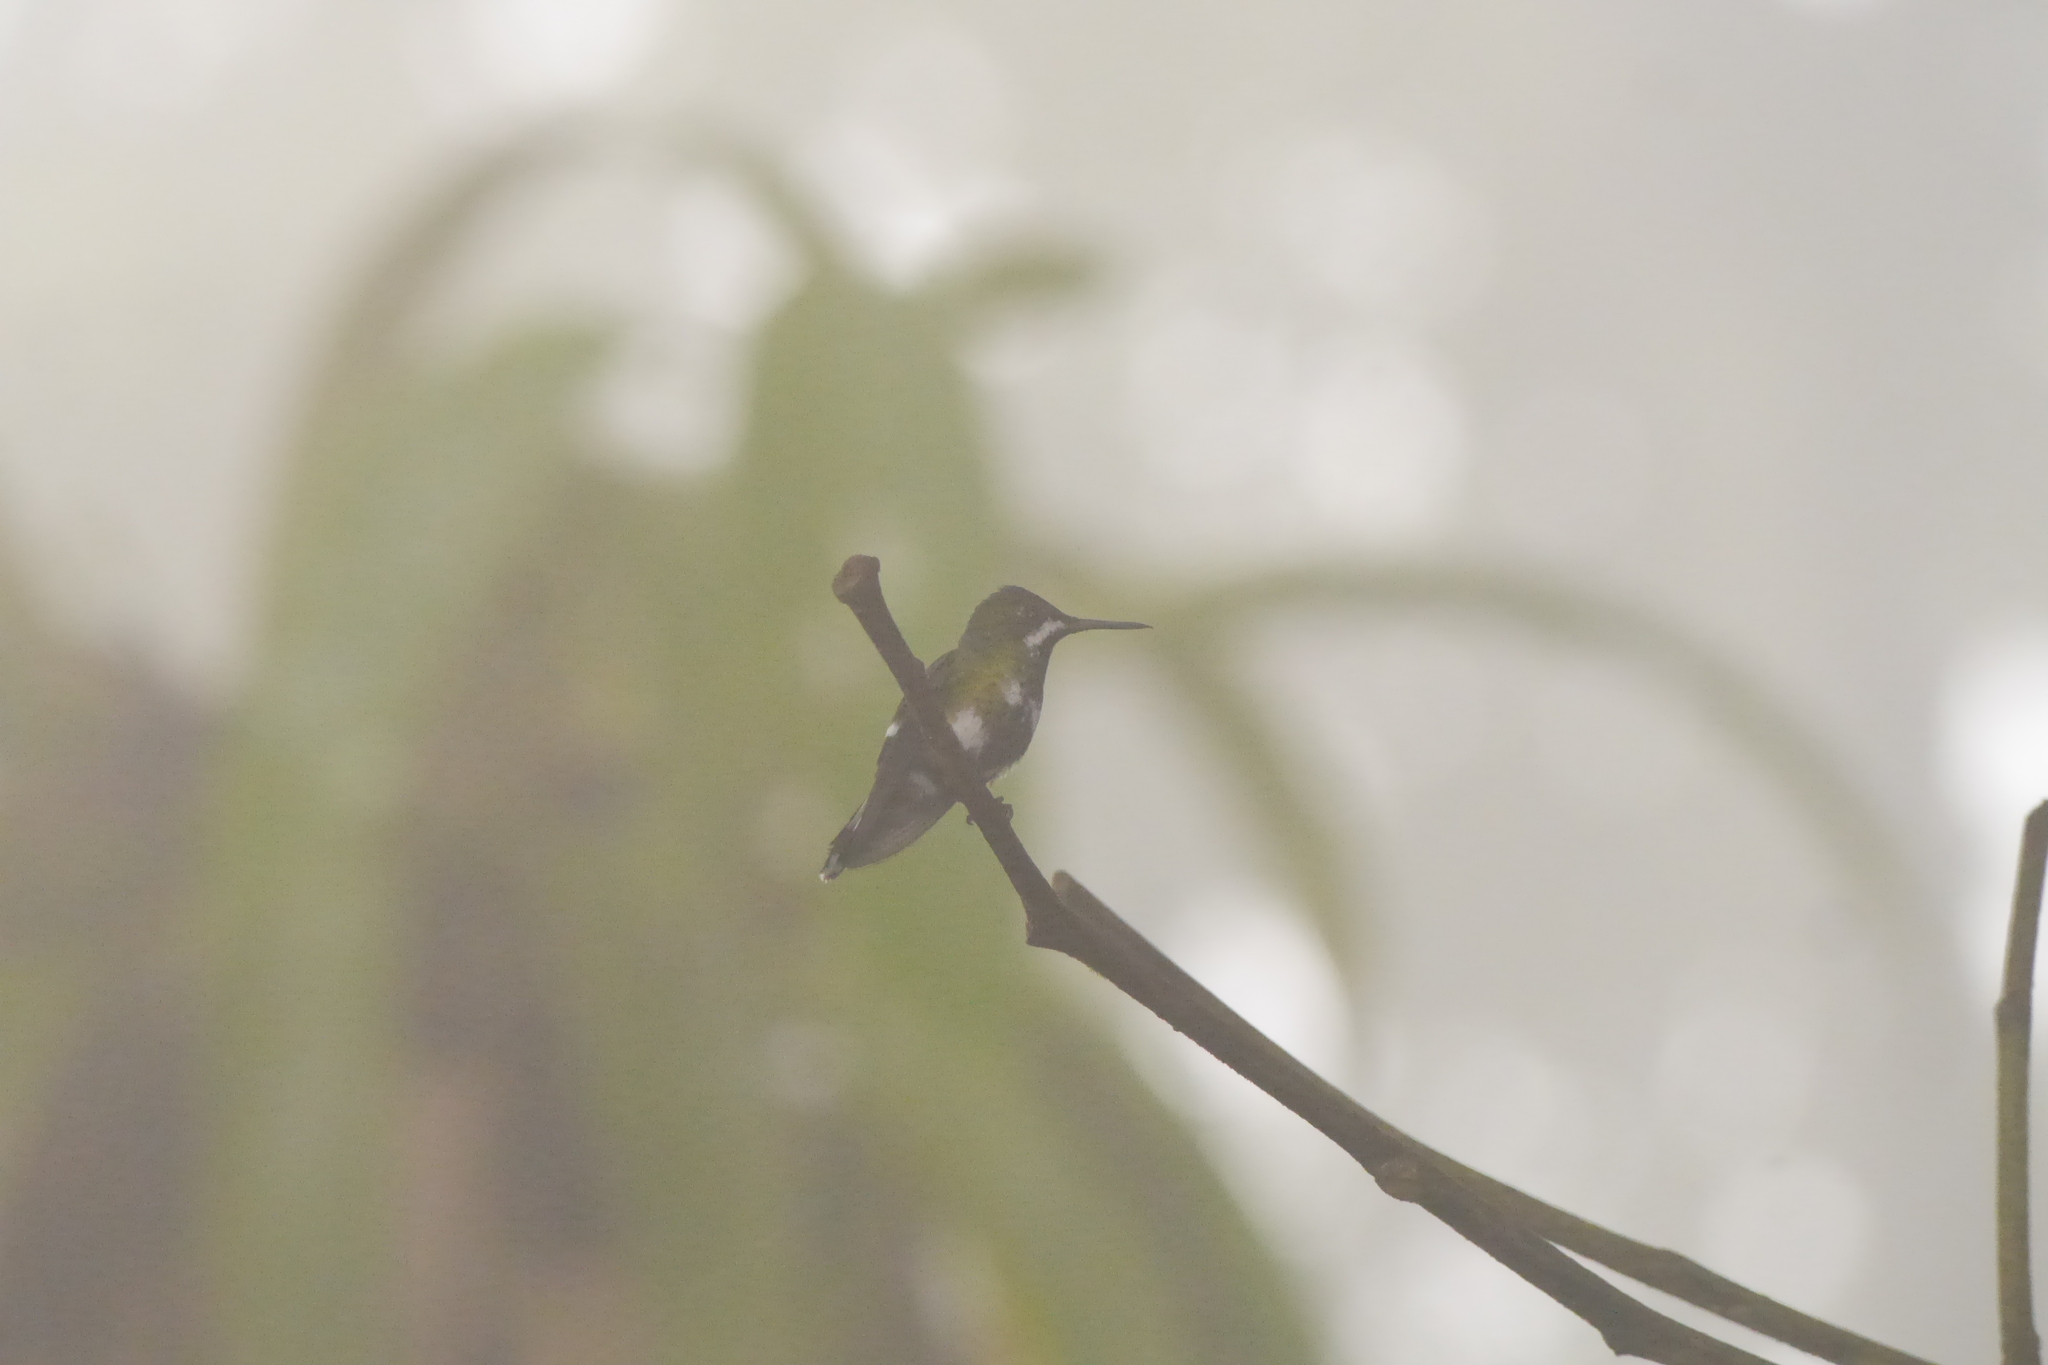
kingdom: Animalia
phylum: Chordata
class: Aves
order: Apodiformes
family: Trochilidae
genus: Discosura
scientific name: Discosura conversii
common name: Green thorntail
